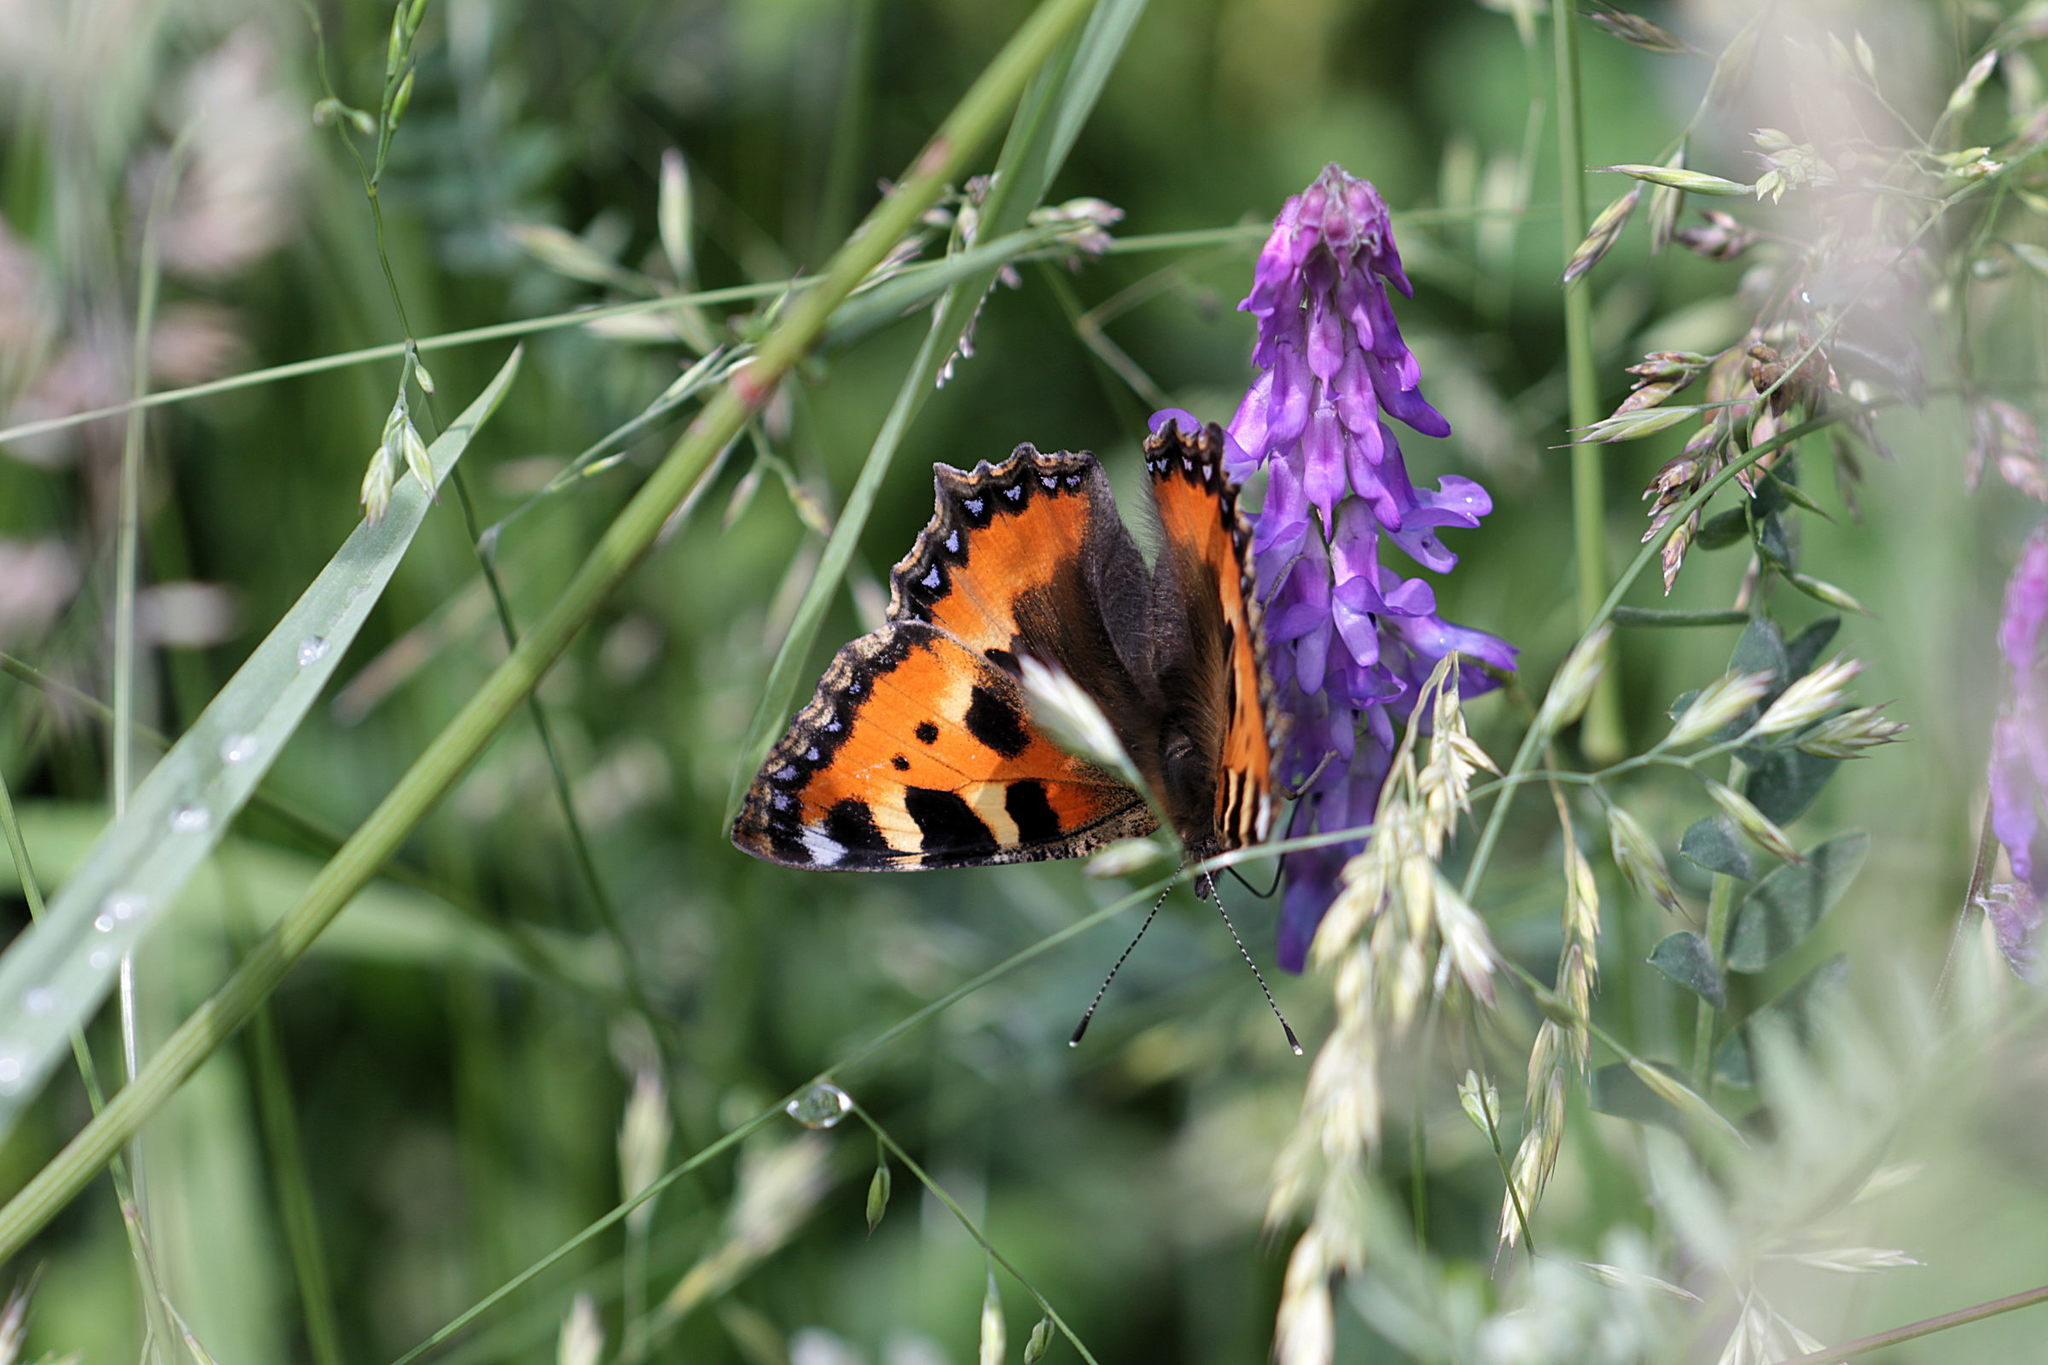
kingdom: Animalia
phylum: Arthropoda
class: Insecta
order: Lepidoptera
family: Nymphalidae
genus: Aglais
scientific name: Aglais urticae
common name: Small tortoiseshell
